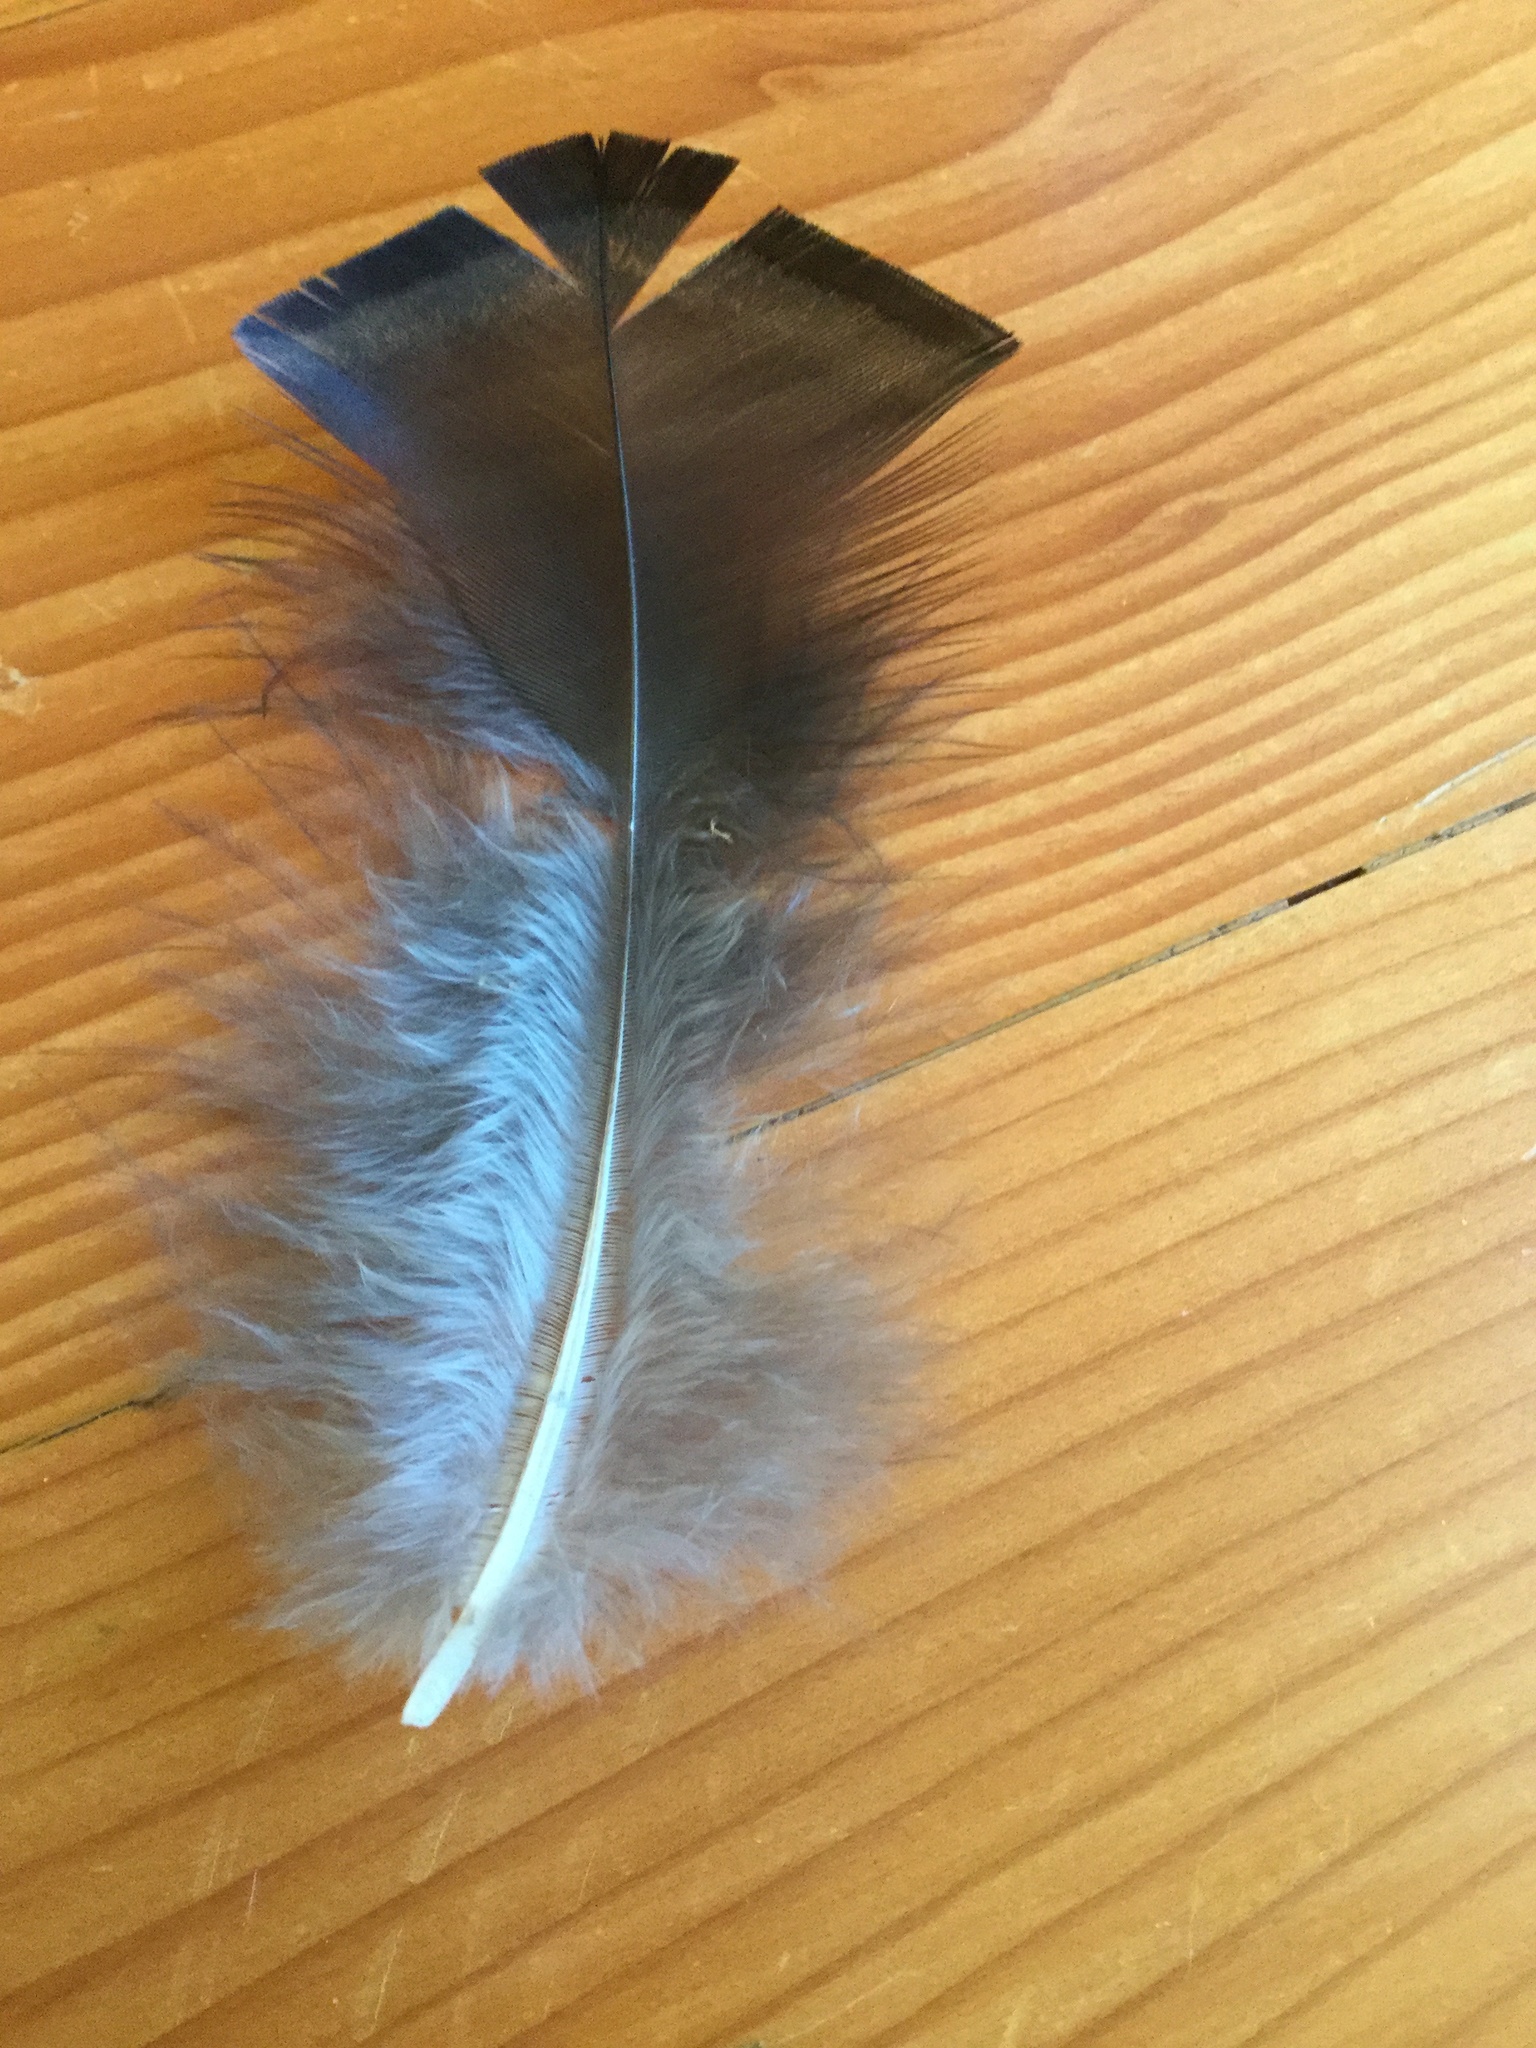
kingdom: Animalia
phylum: Chordata
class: Aves
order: Galliformes
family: Phasianidae
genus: Meleagris
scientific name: Meleagris gallopavo
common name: Wild turkey
